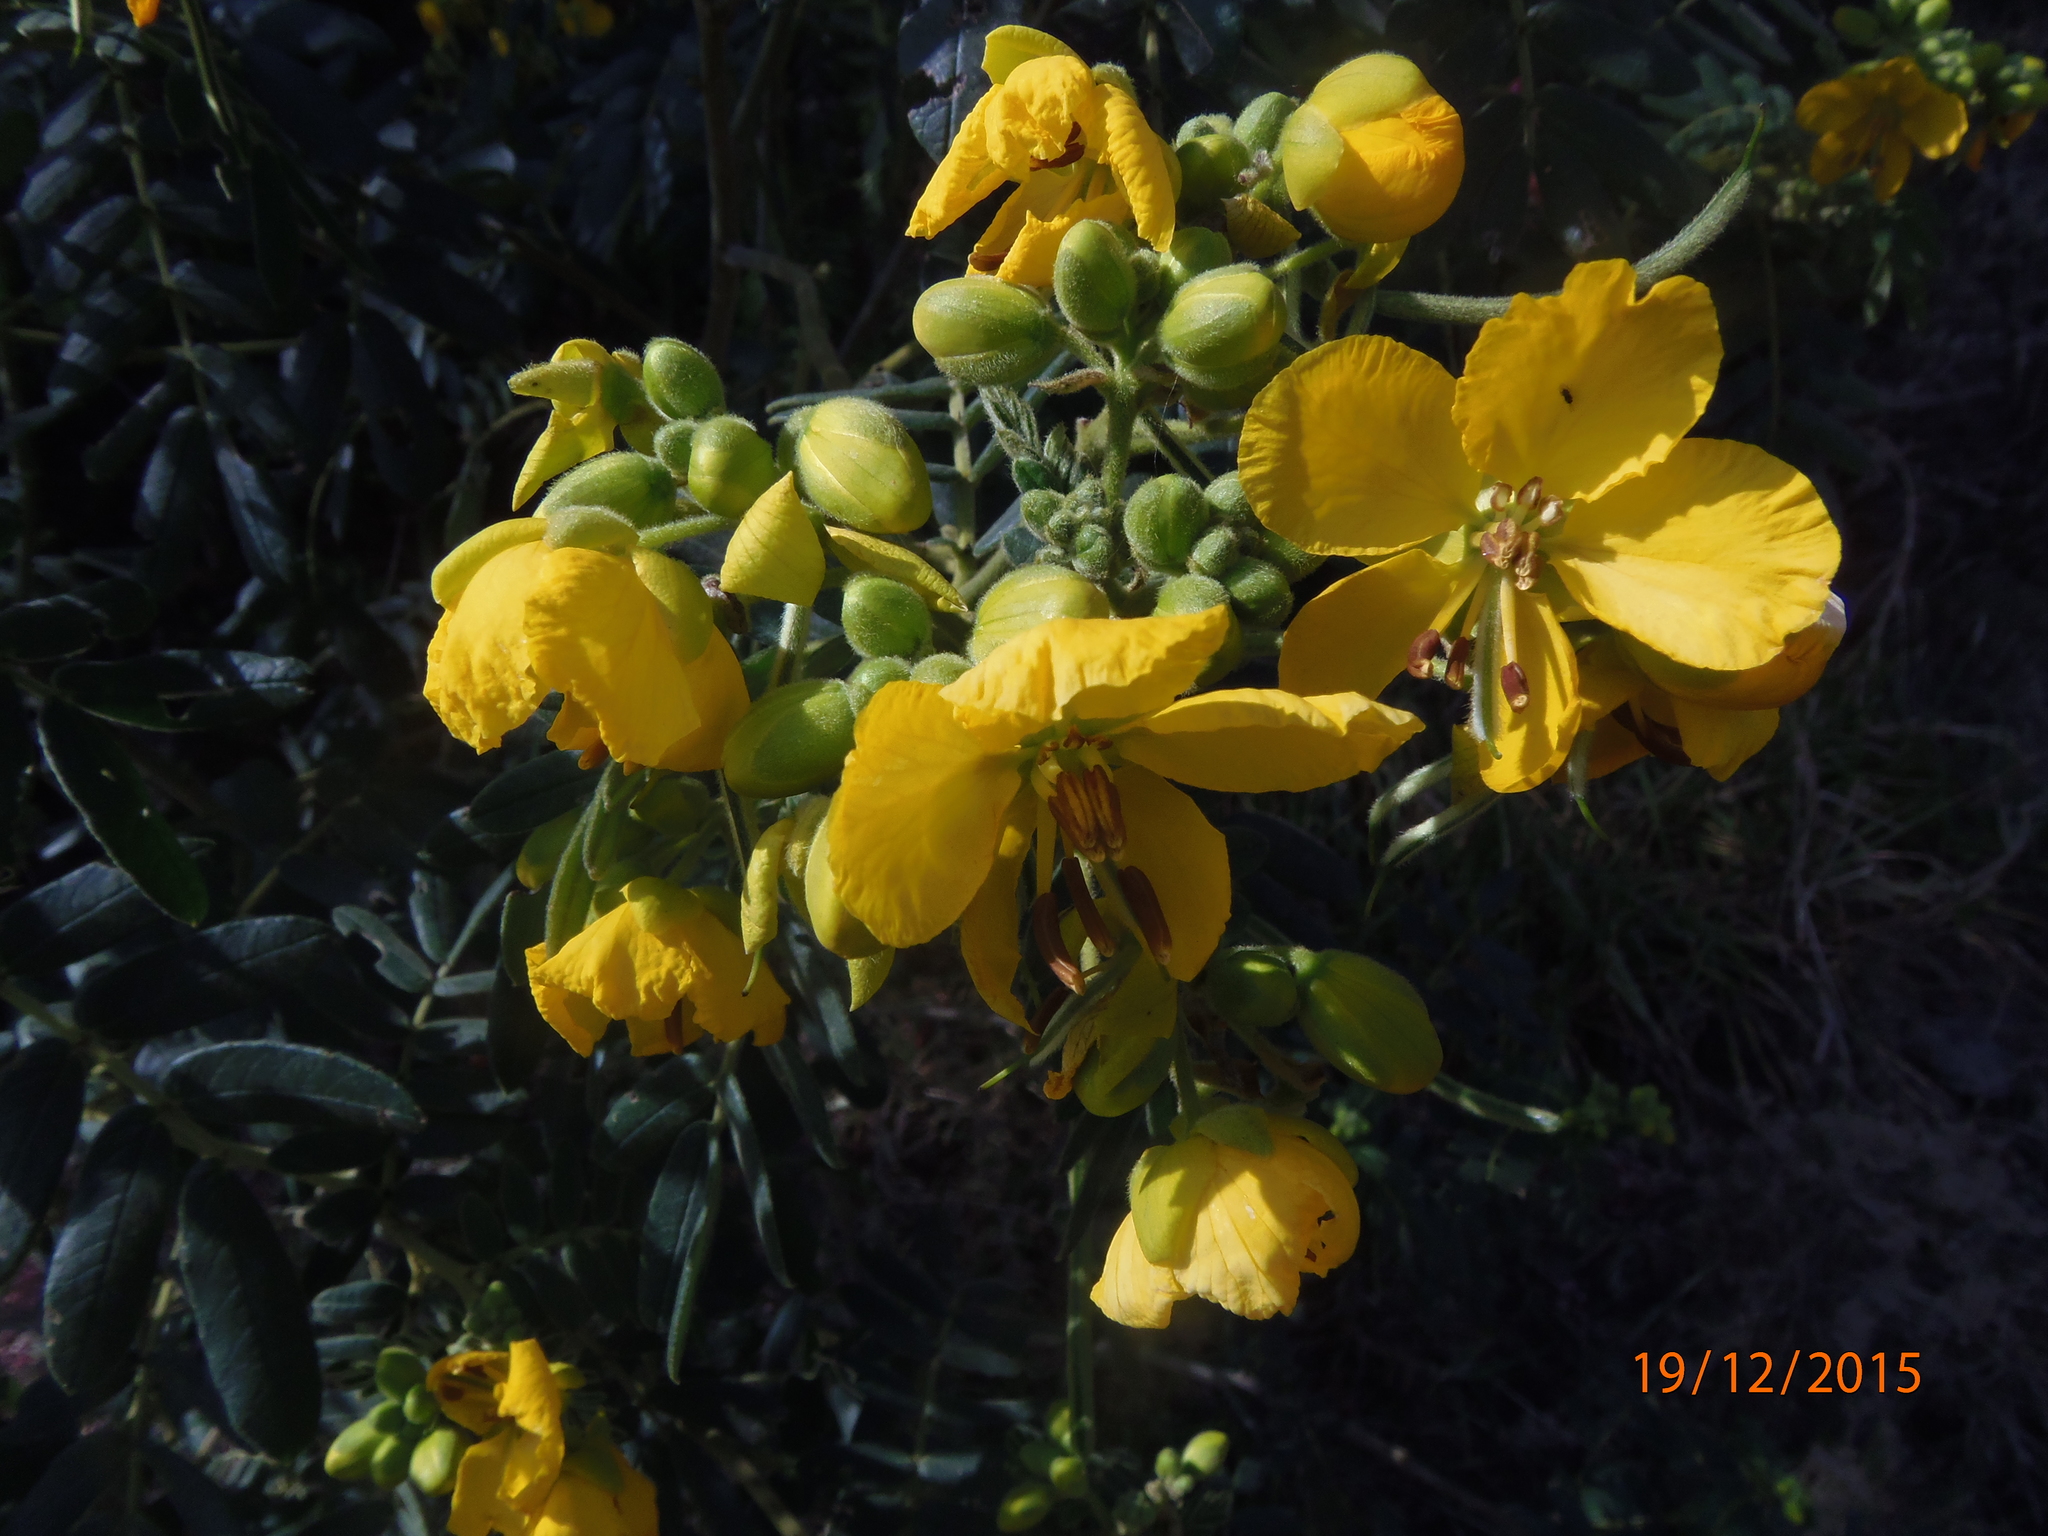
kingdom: Plantae
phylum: Tracheophyta
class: Magnoliopsida
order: Fabales
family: Fabaceae
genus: Senna
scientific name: Senna
